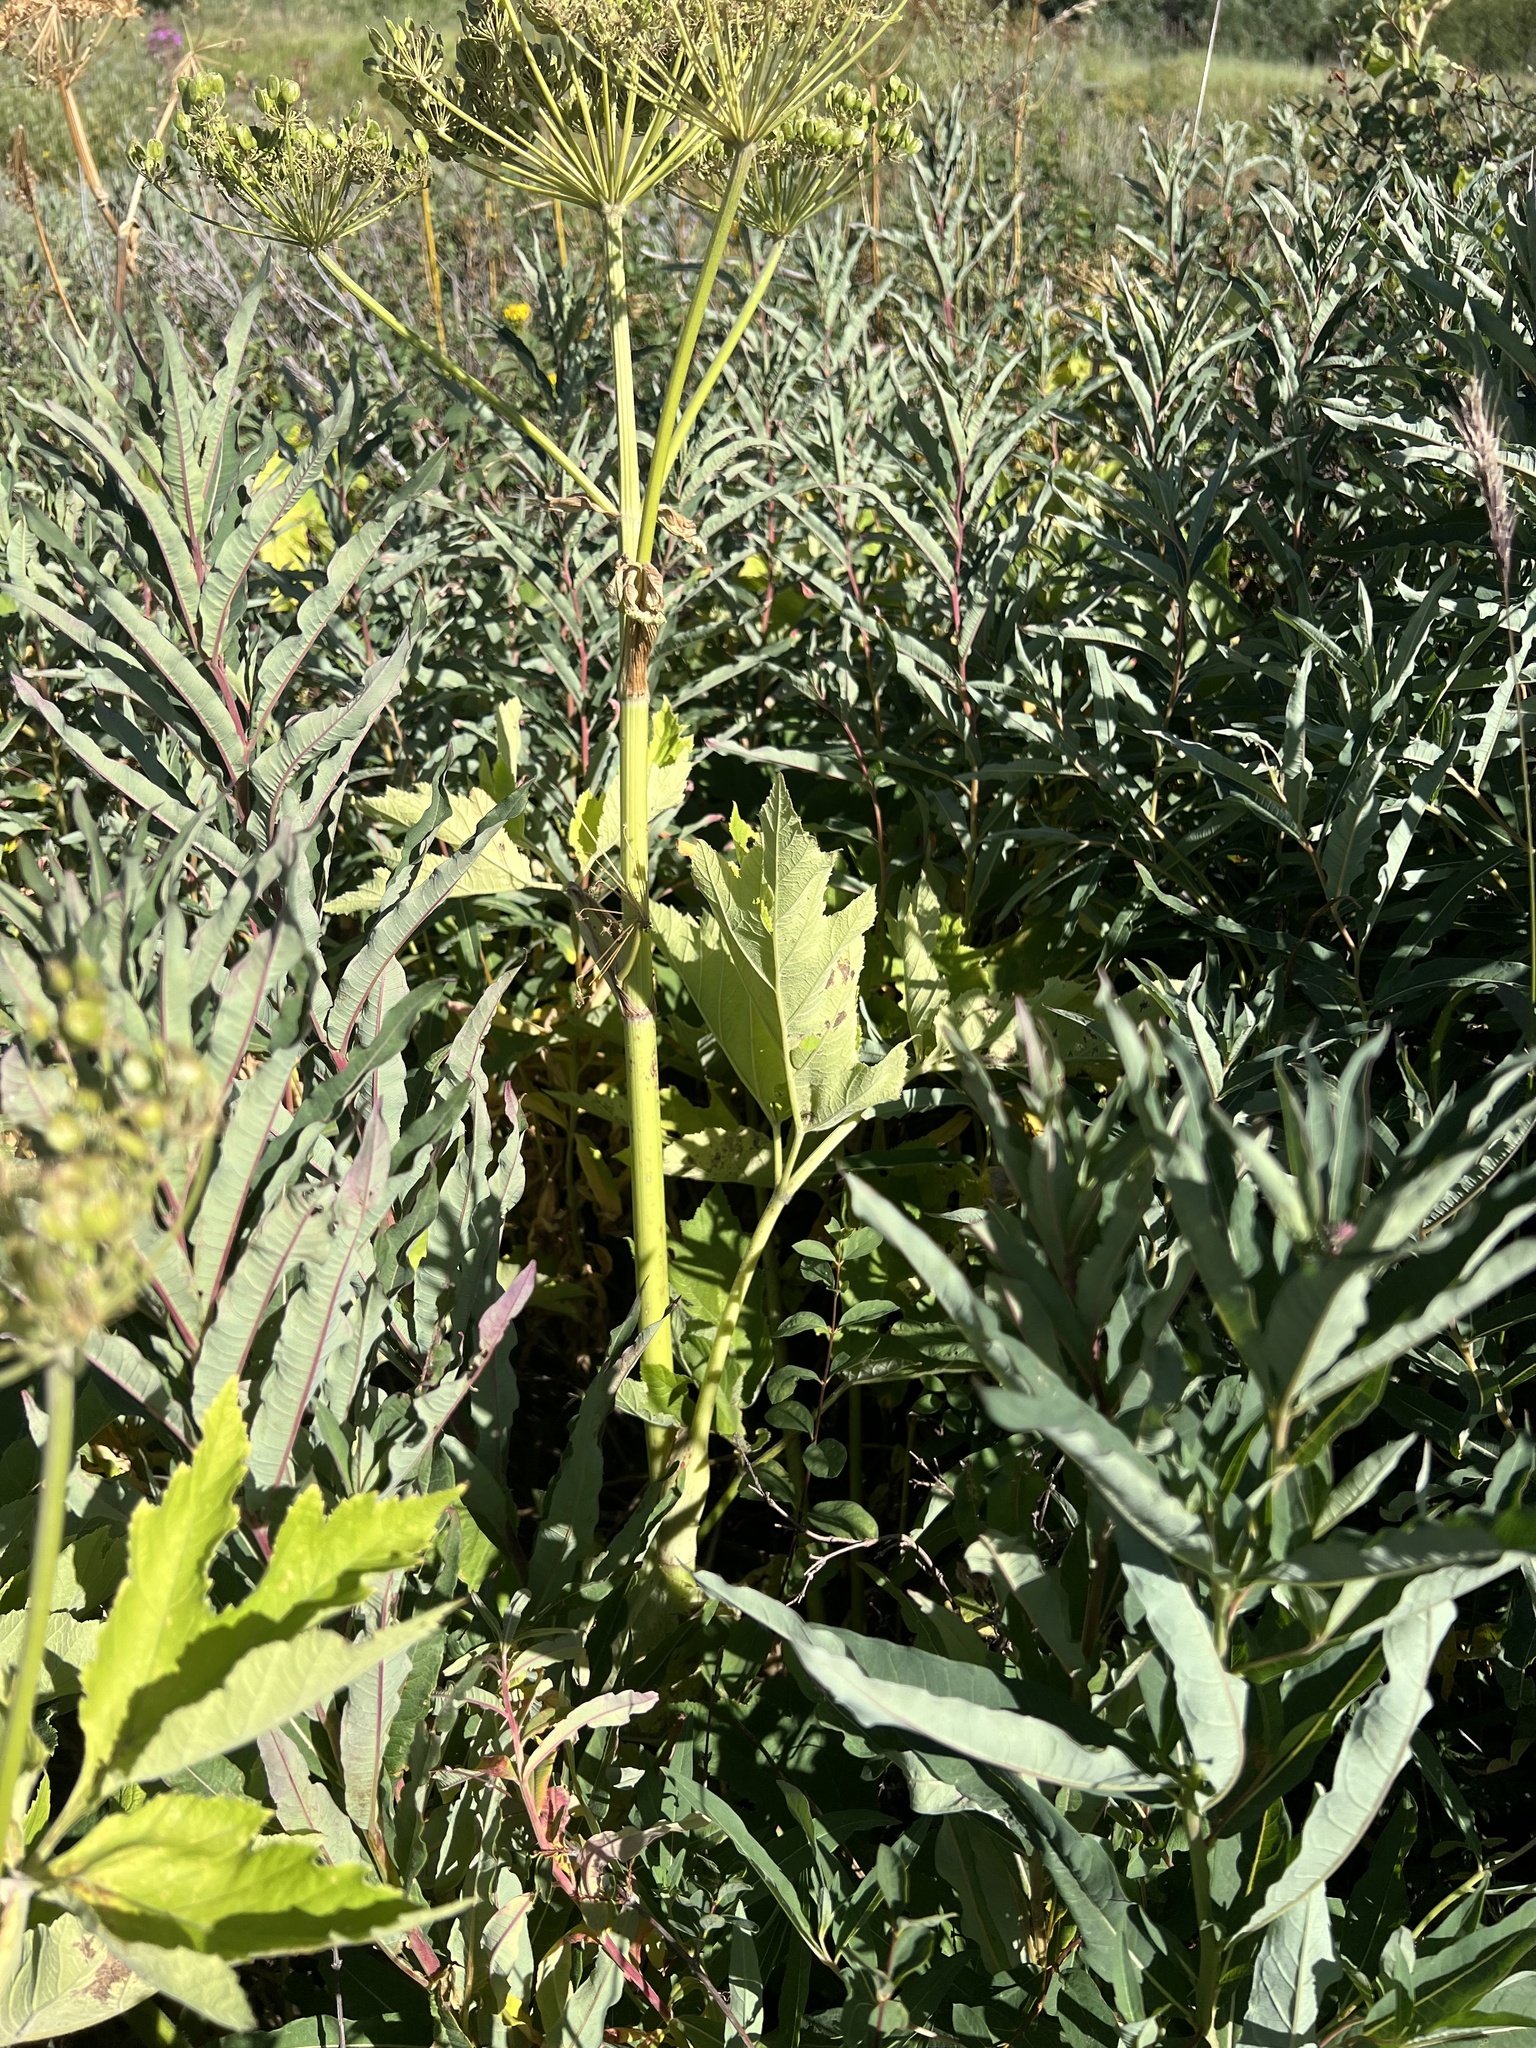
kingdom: Plantae
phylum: Tracheophyta
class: Magnoliopsida
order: Apiales
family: Apiaceae
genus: Heracleum
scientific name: Heracleum maximum
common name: American cow parsnip
